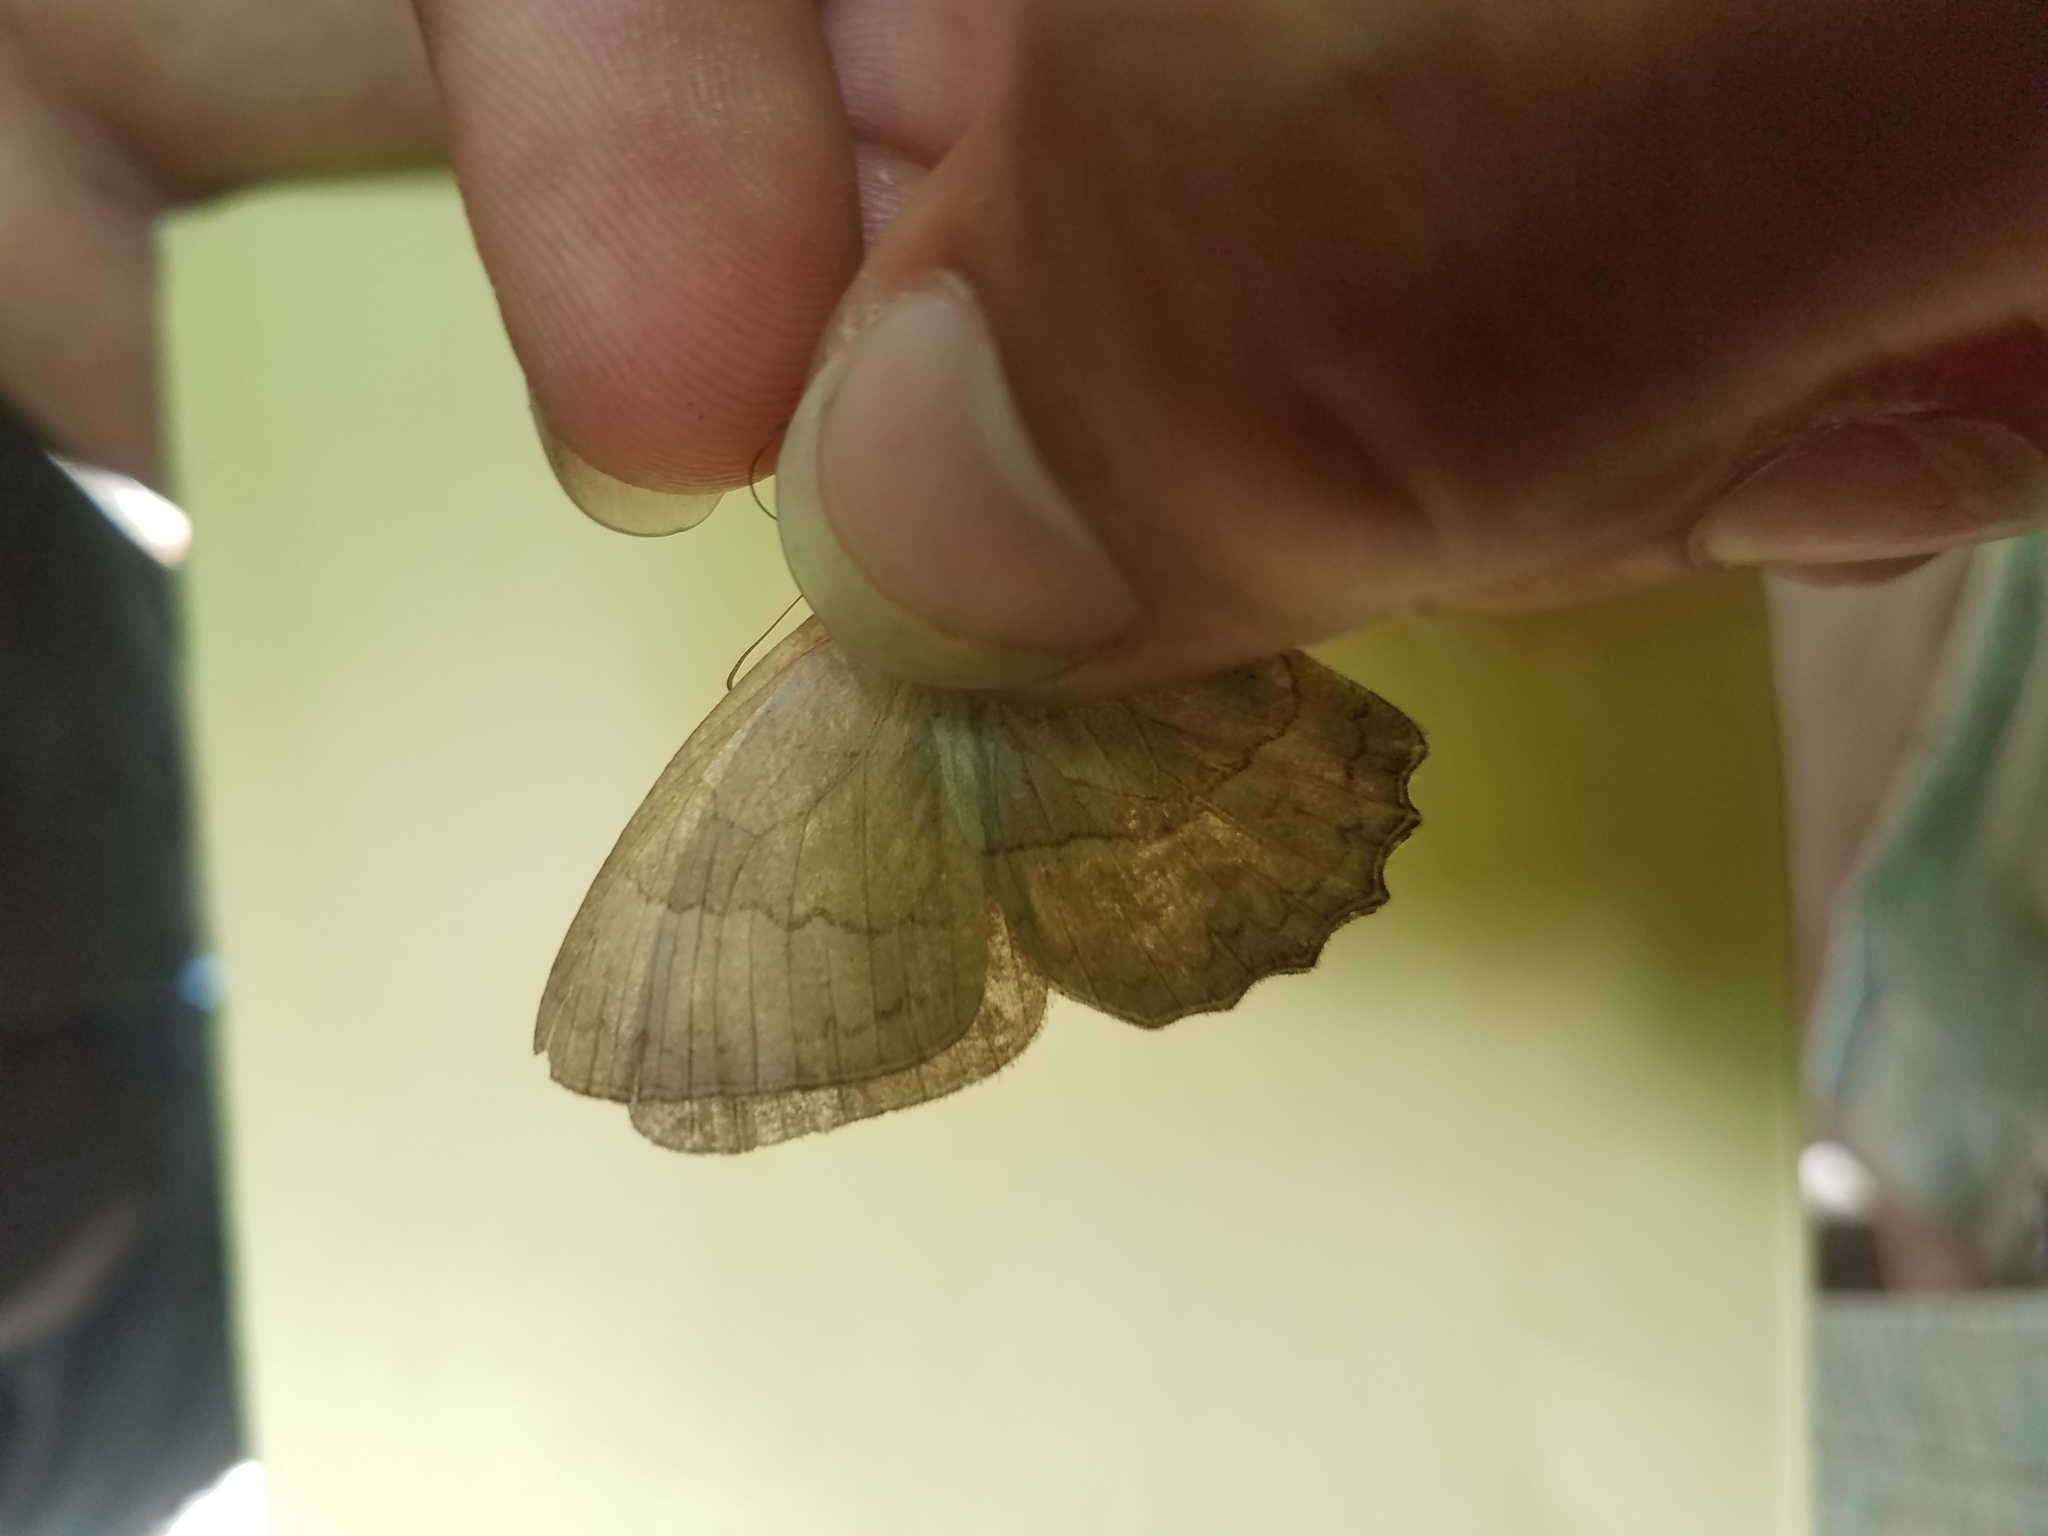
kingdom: Animalia
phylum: Arthropoda
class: Insecta
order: Lepidoptera
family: Nymphalidae
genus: Taygetina
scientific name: Taygetina kerea
